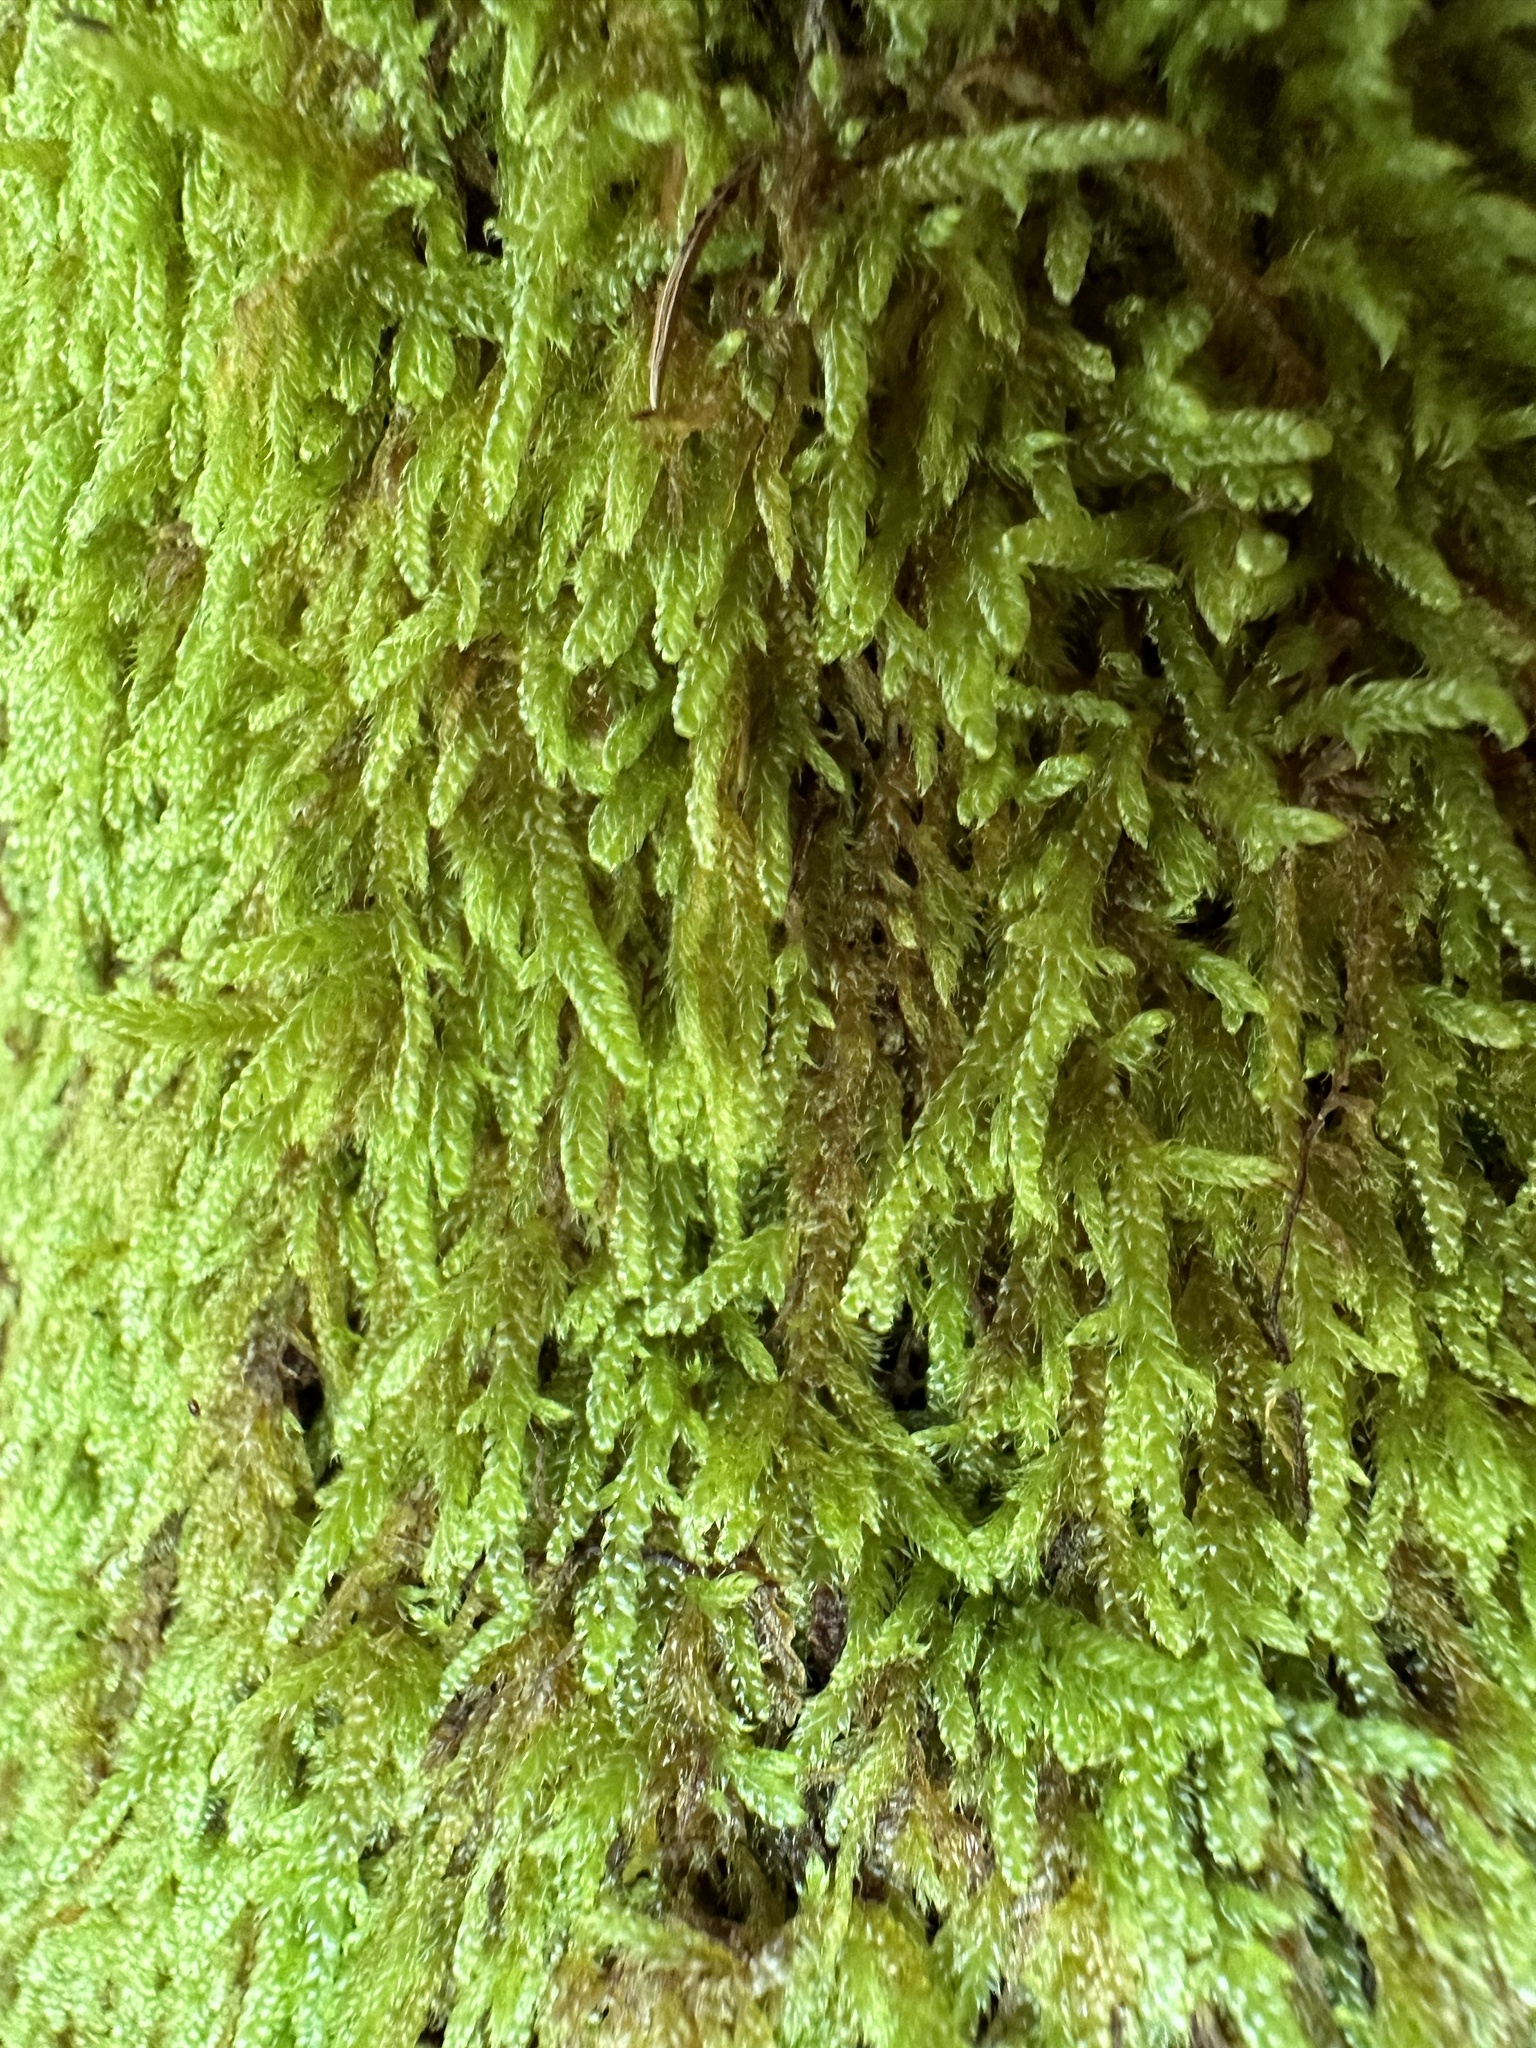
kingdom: Plantae
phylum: Bryophyta
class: Bryopsida
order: Hypnales
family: Hypnaceae
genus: Hypnum
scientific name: Hypnum cupressiforme
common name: Cypress-leaved plait-moss
